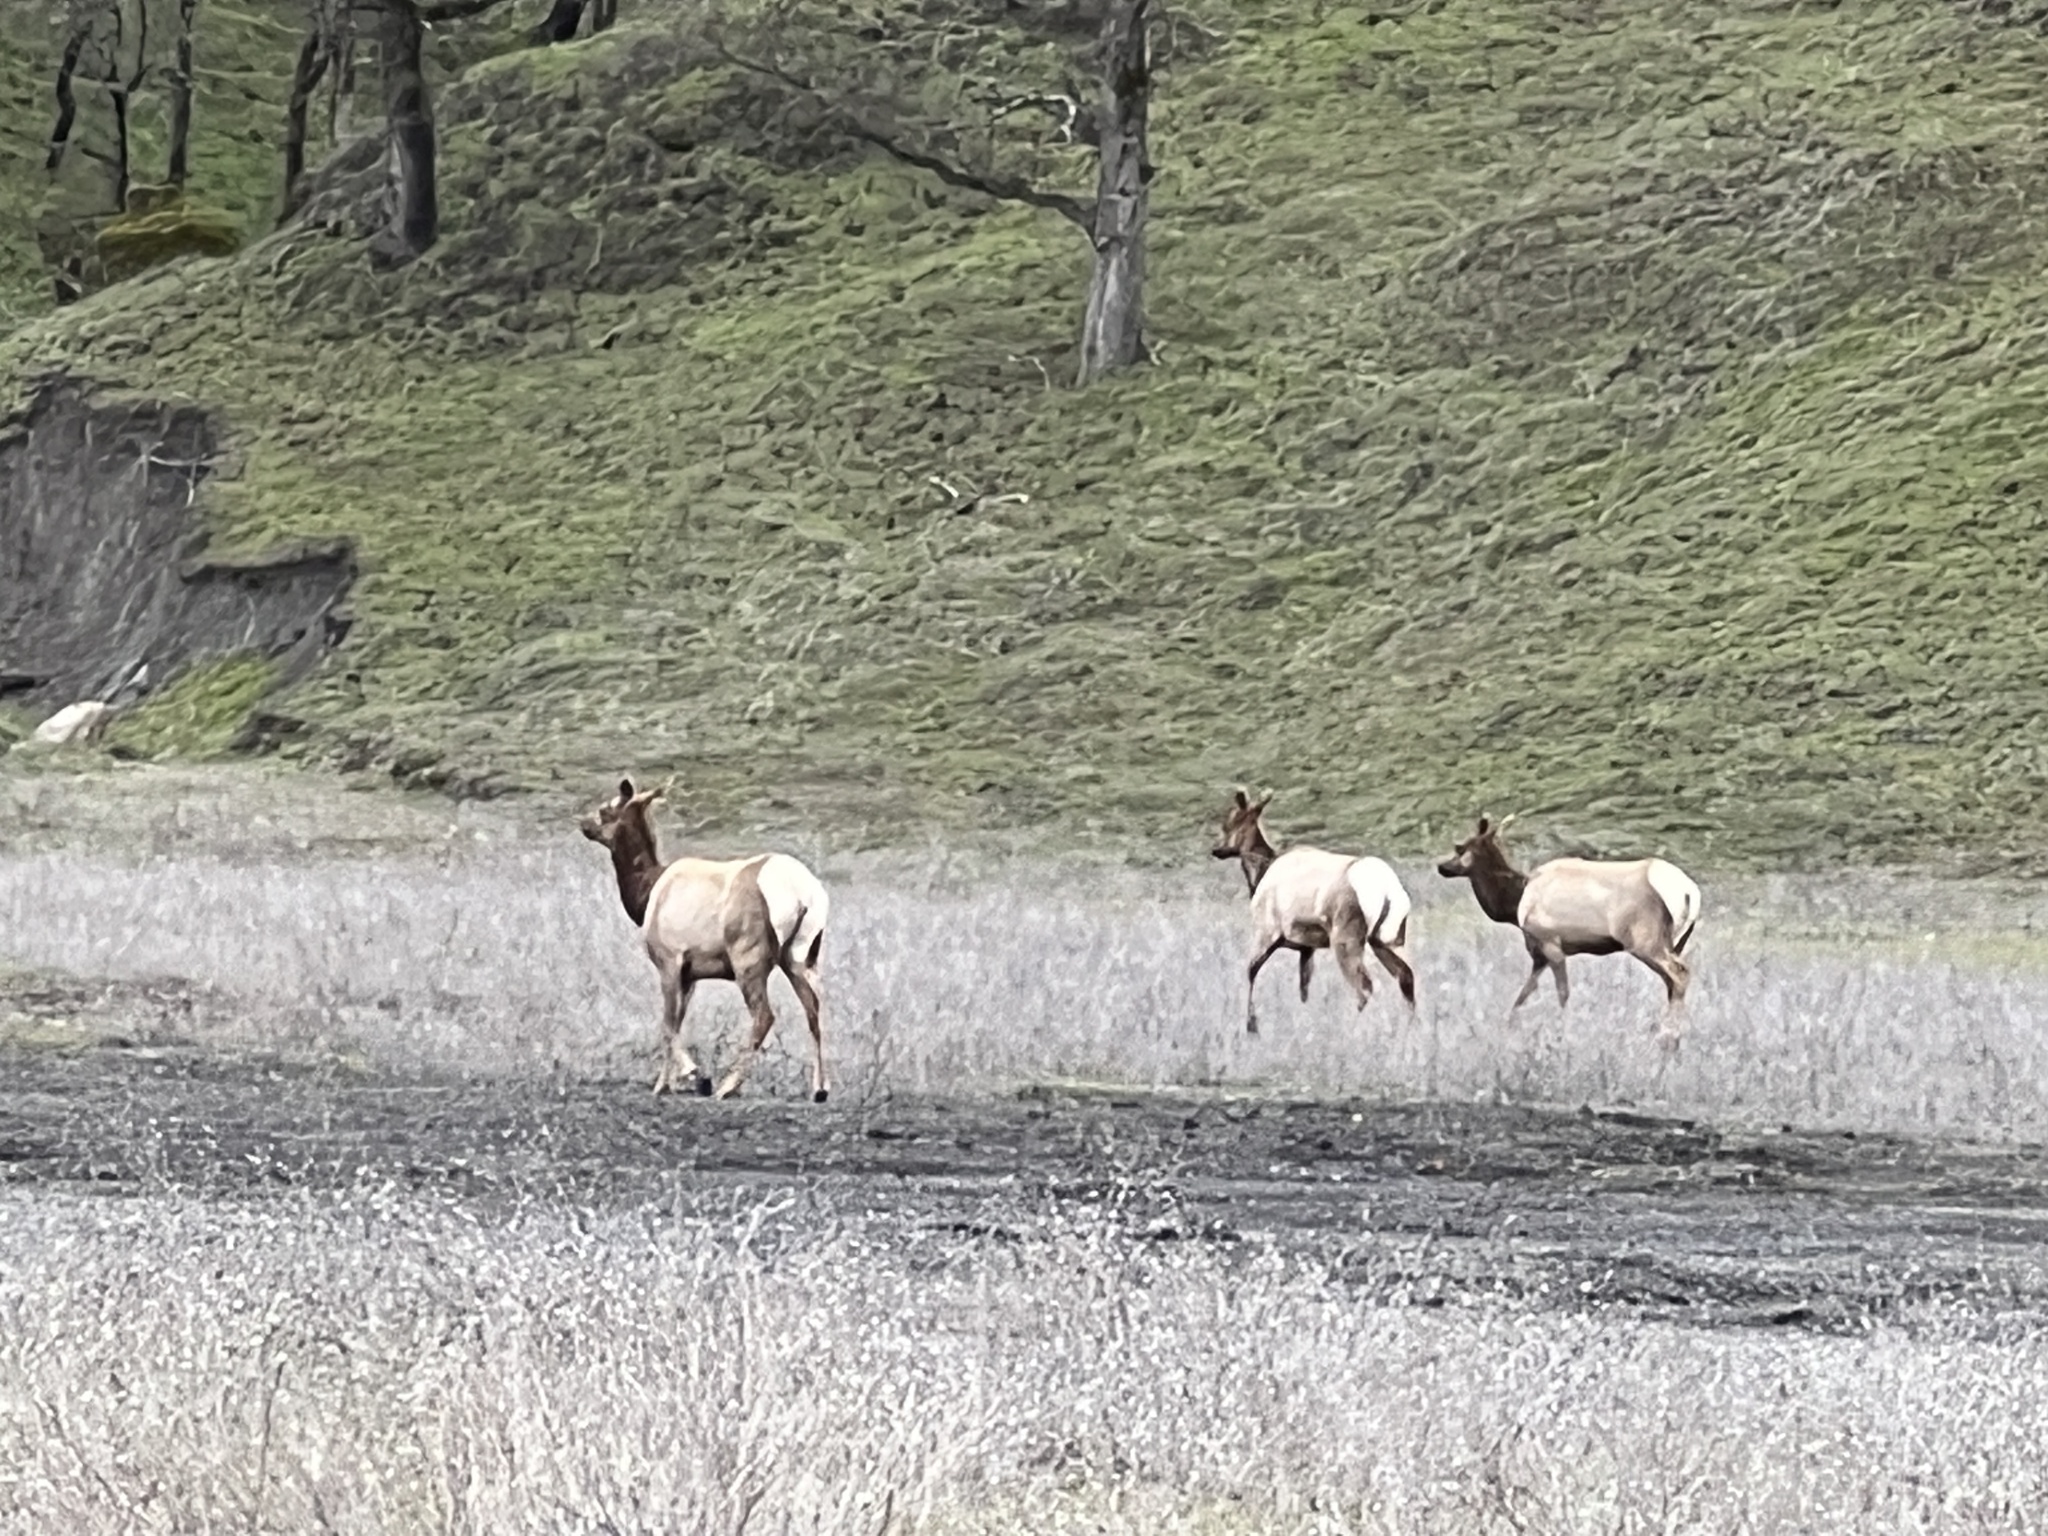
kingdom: Animalia
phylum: Chordata
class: Mammalia
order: Artiodactyla
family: Cervidae
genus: Cervus
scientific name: Cervus elaphus
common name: Red deer
